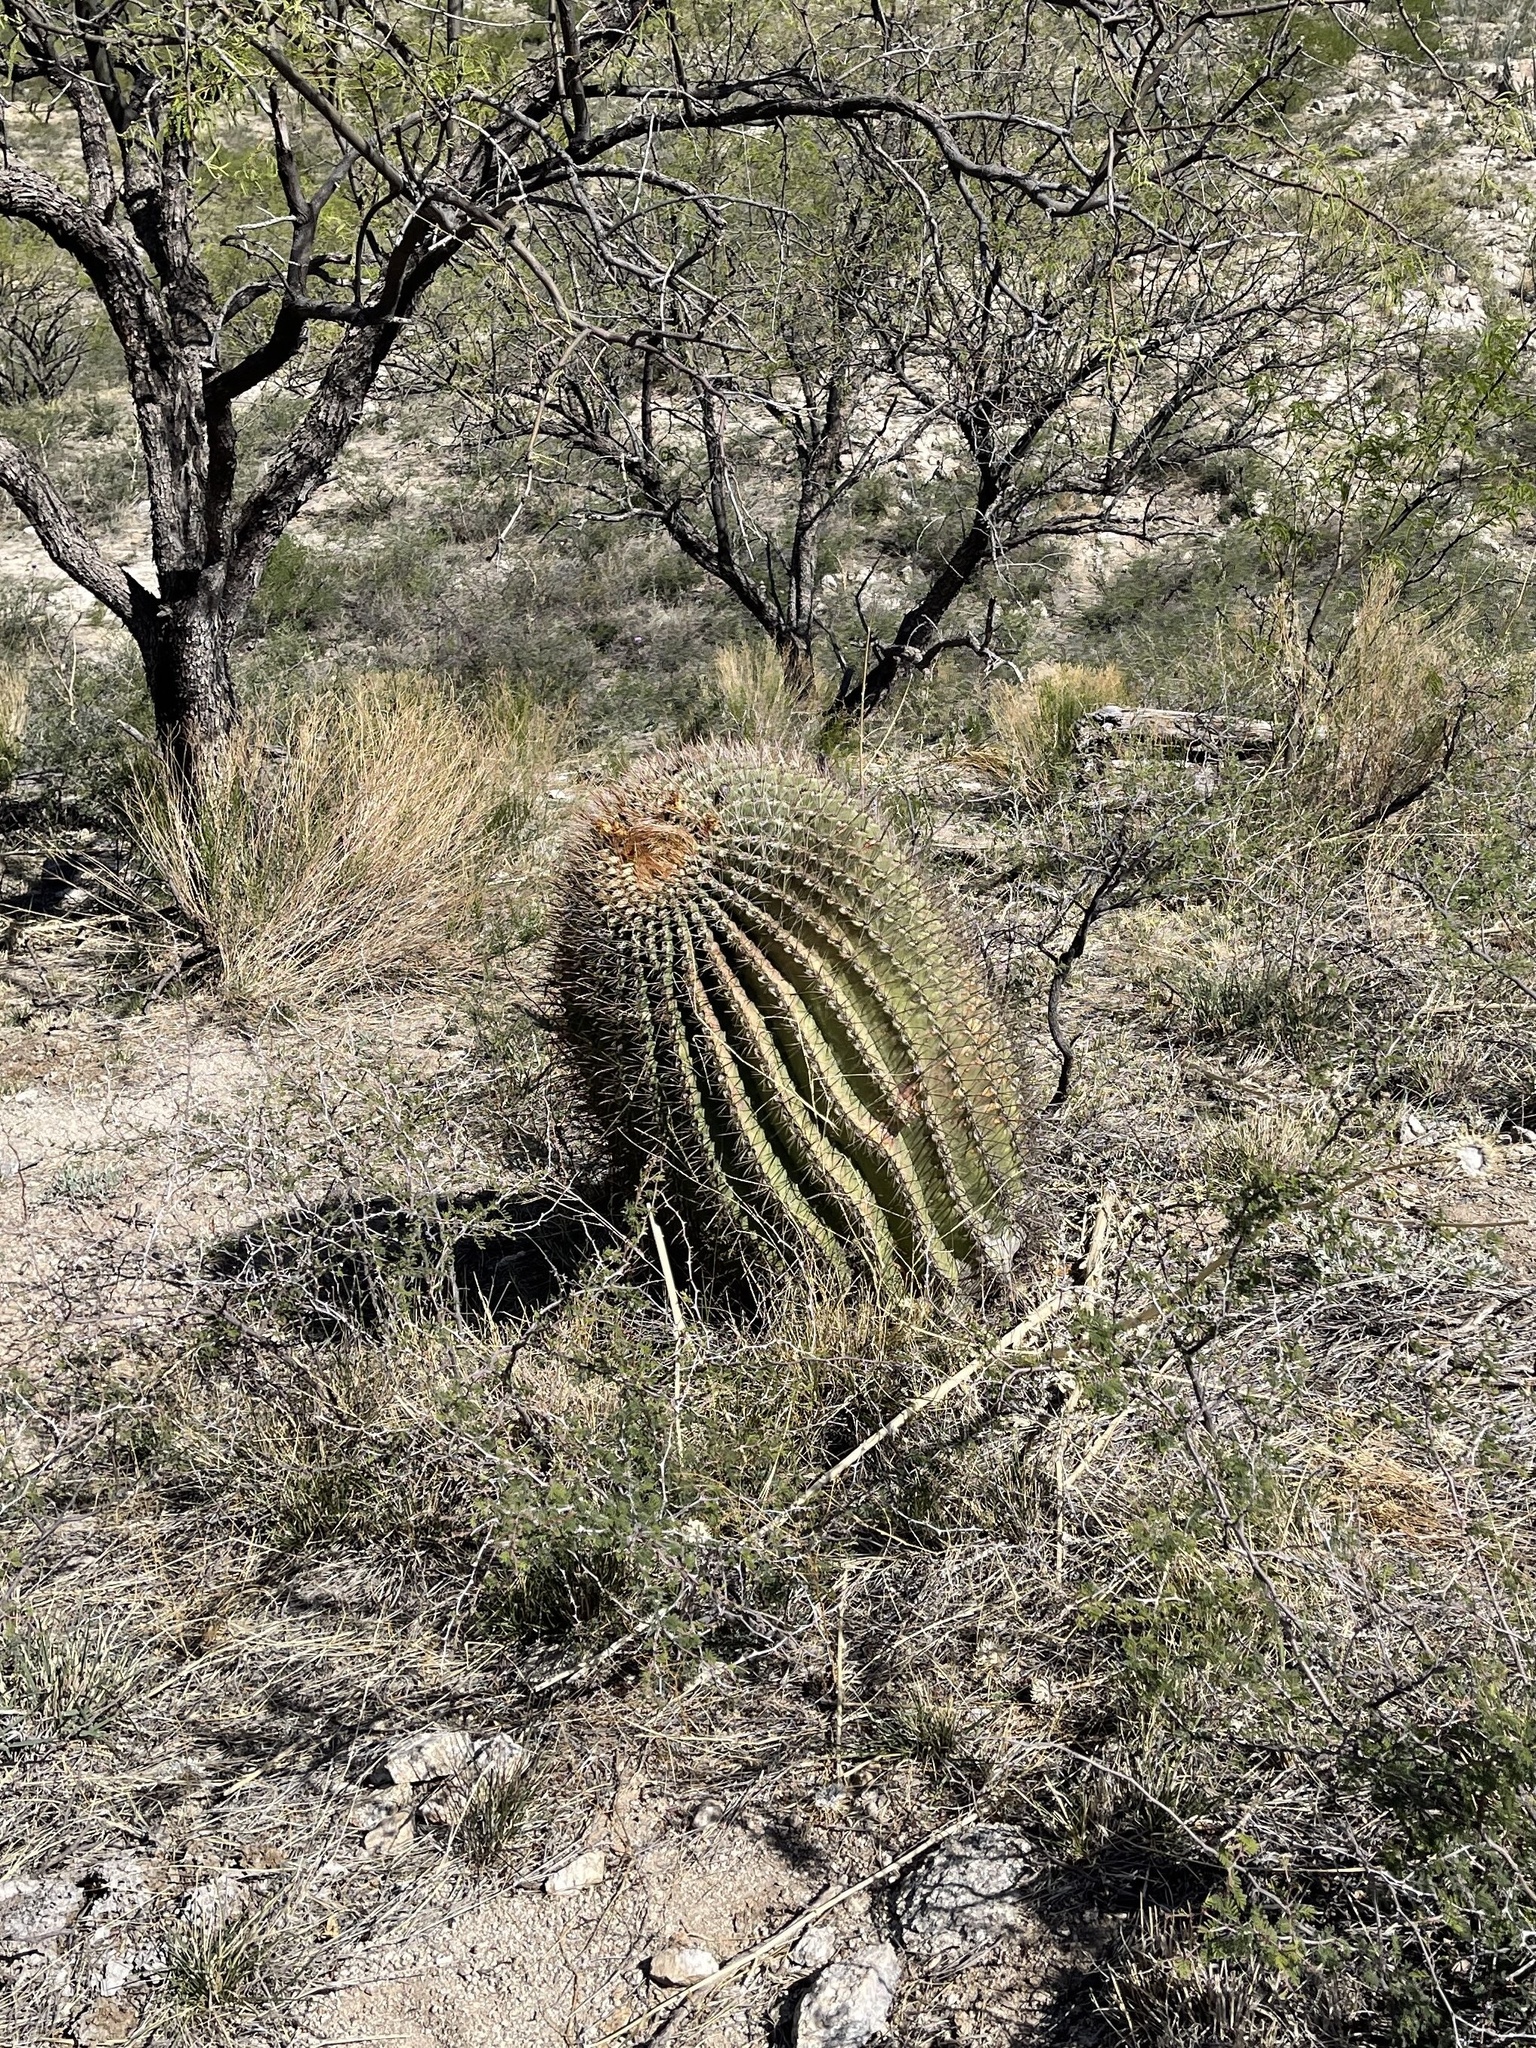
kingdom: Plantae
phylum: Tracheophyta
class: Magnoliopsida
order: Caryophyllales
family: Cactaceae
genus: Ferocactus
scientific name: Ferocactus wislizeni
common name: Candy barrel cactus
